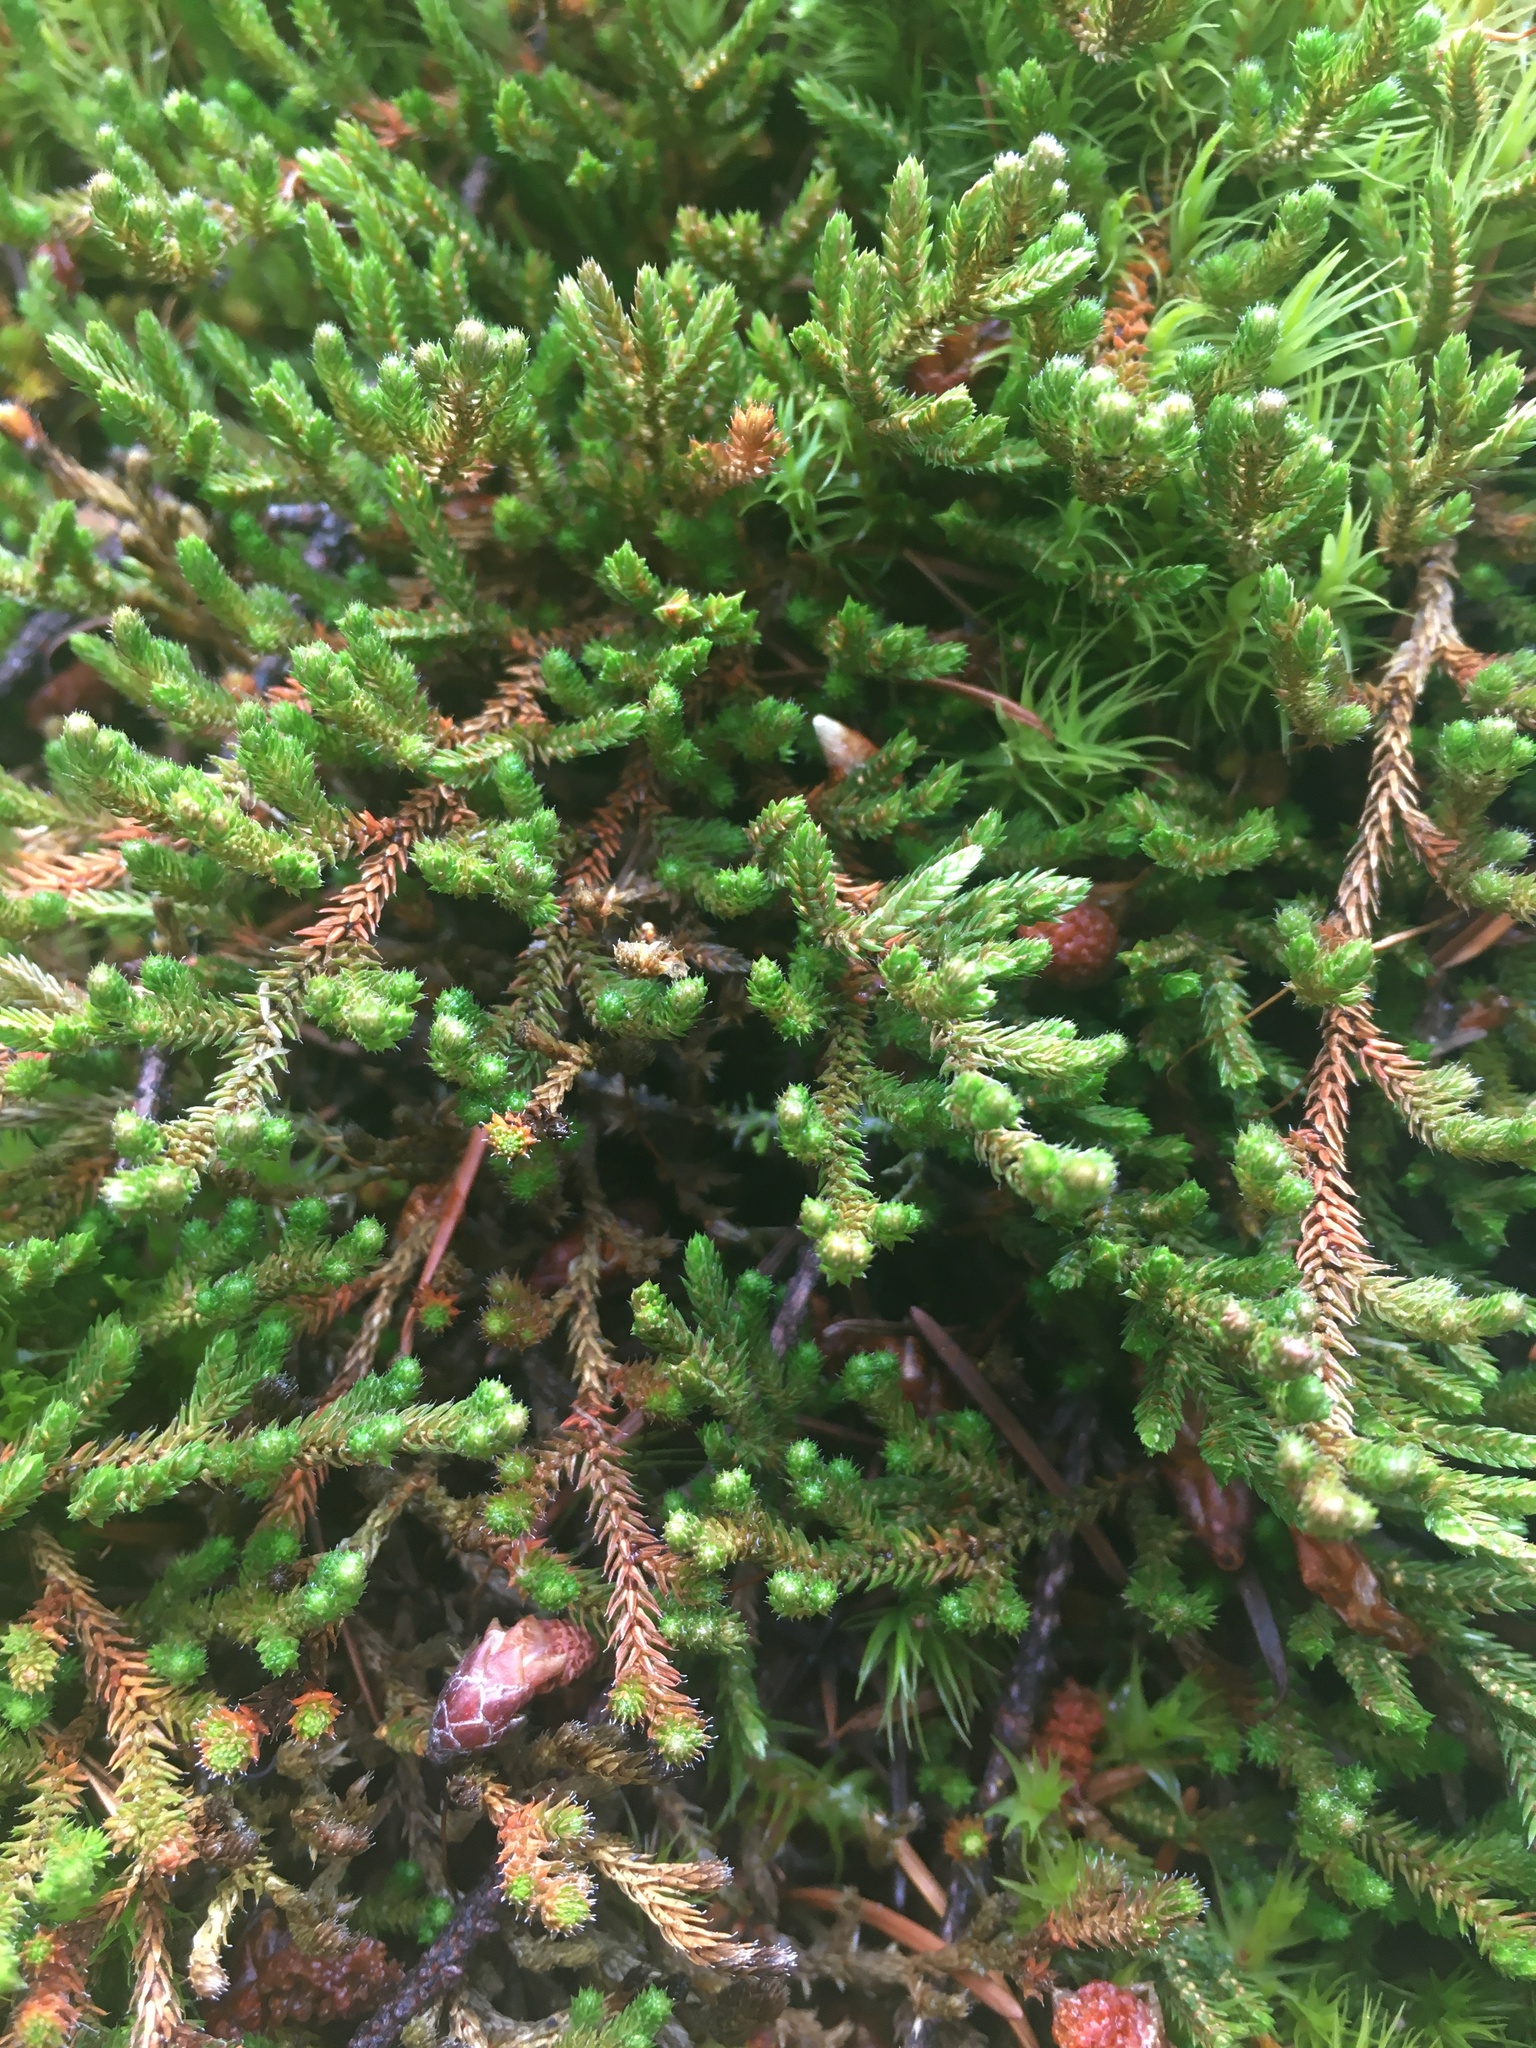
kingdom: Plantae
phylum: Tracheophyta
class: Lycopodiopsida
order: Selaginellales
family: Selaginellaceae
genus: Selaginella
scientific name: Selaginella wallacei
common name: Wallace's selaginella
